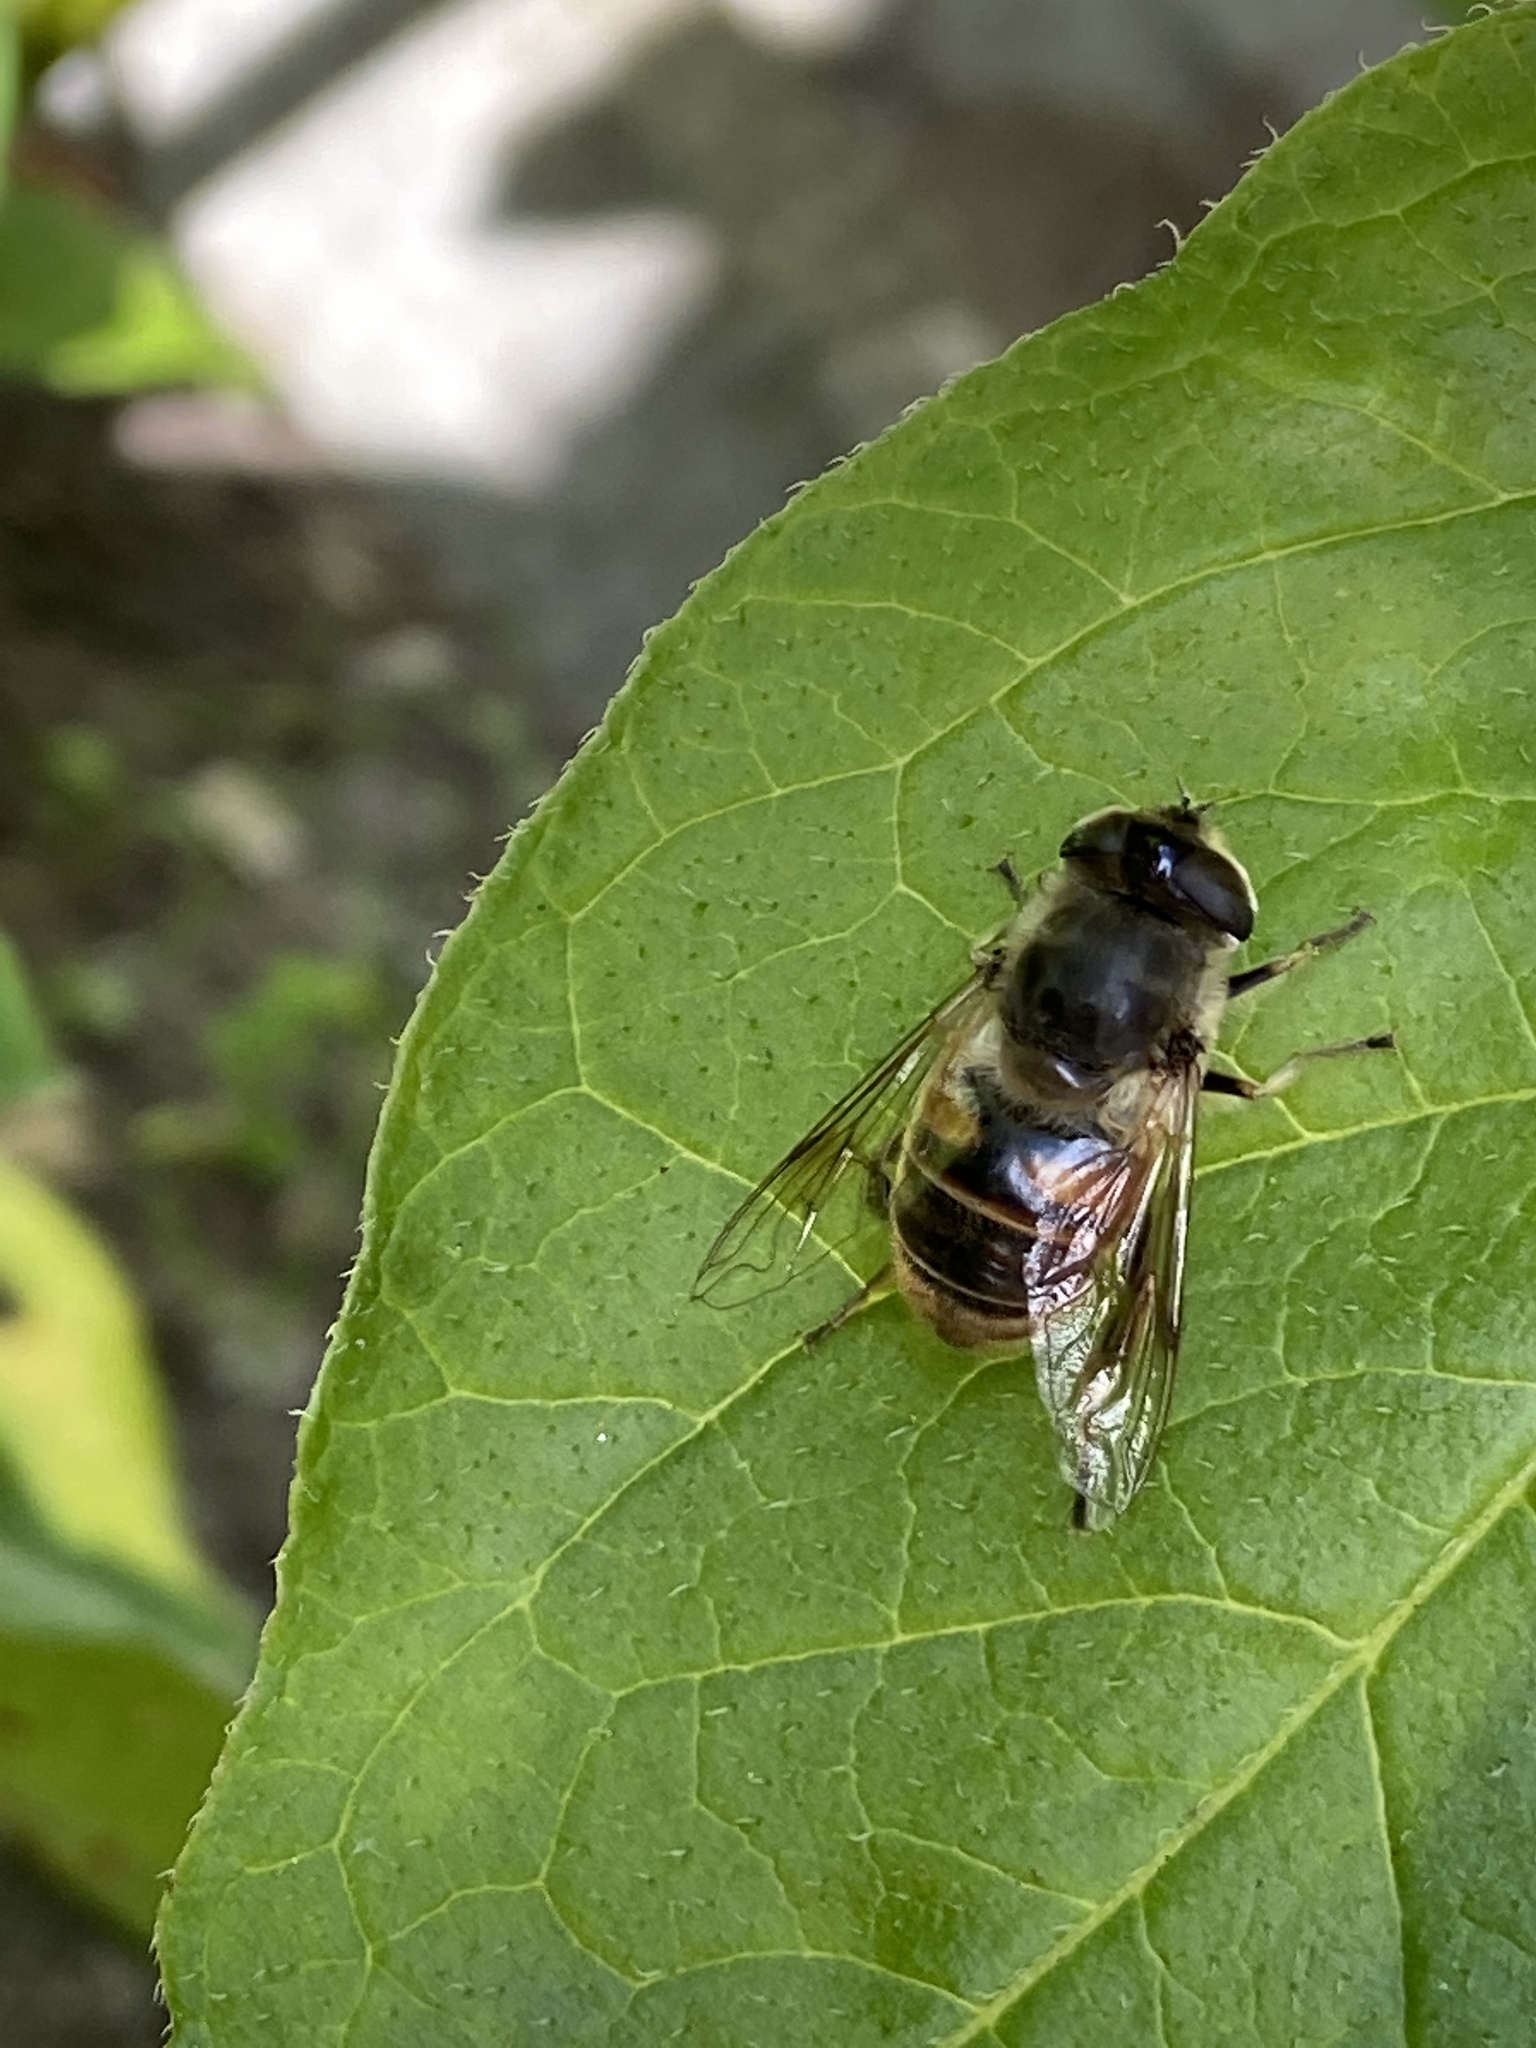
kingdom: Animalia
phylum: Arthropoda
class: Insecta
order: Diptera
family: Syrphidae
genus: Eristalis
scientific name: Eristalis tenax
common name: Drone fly
